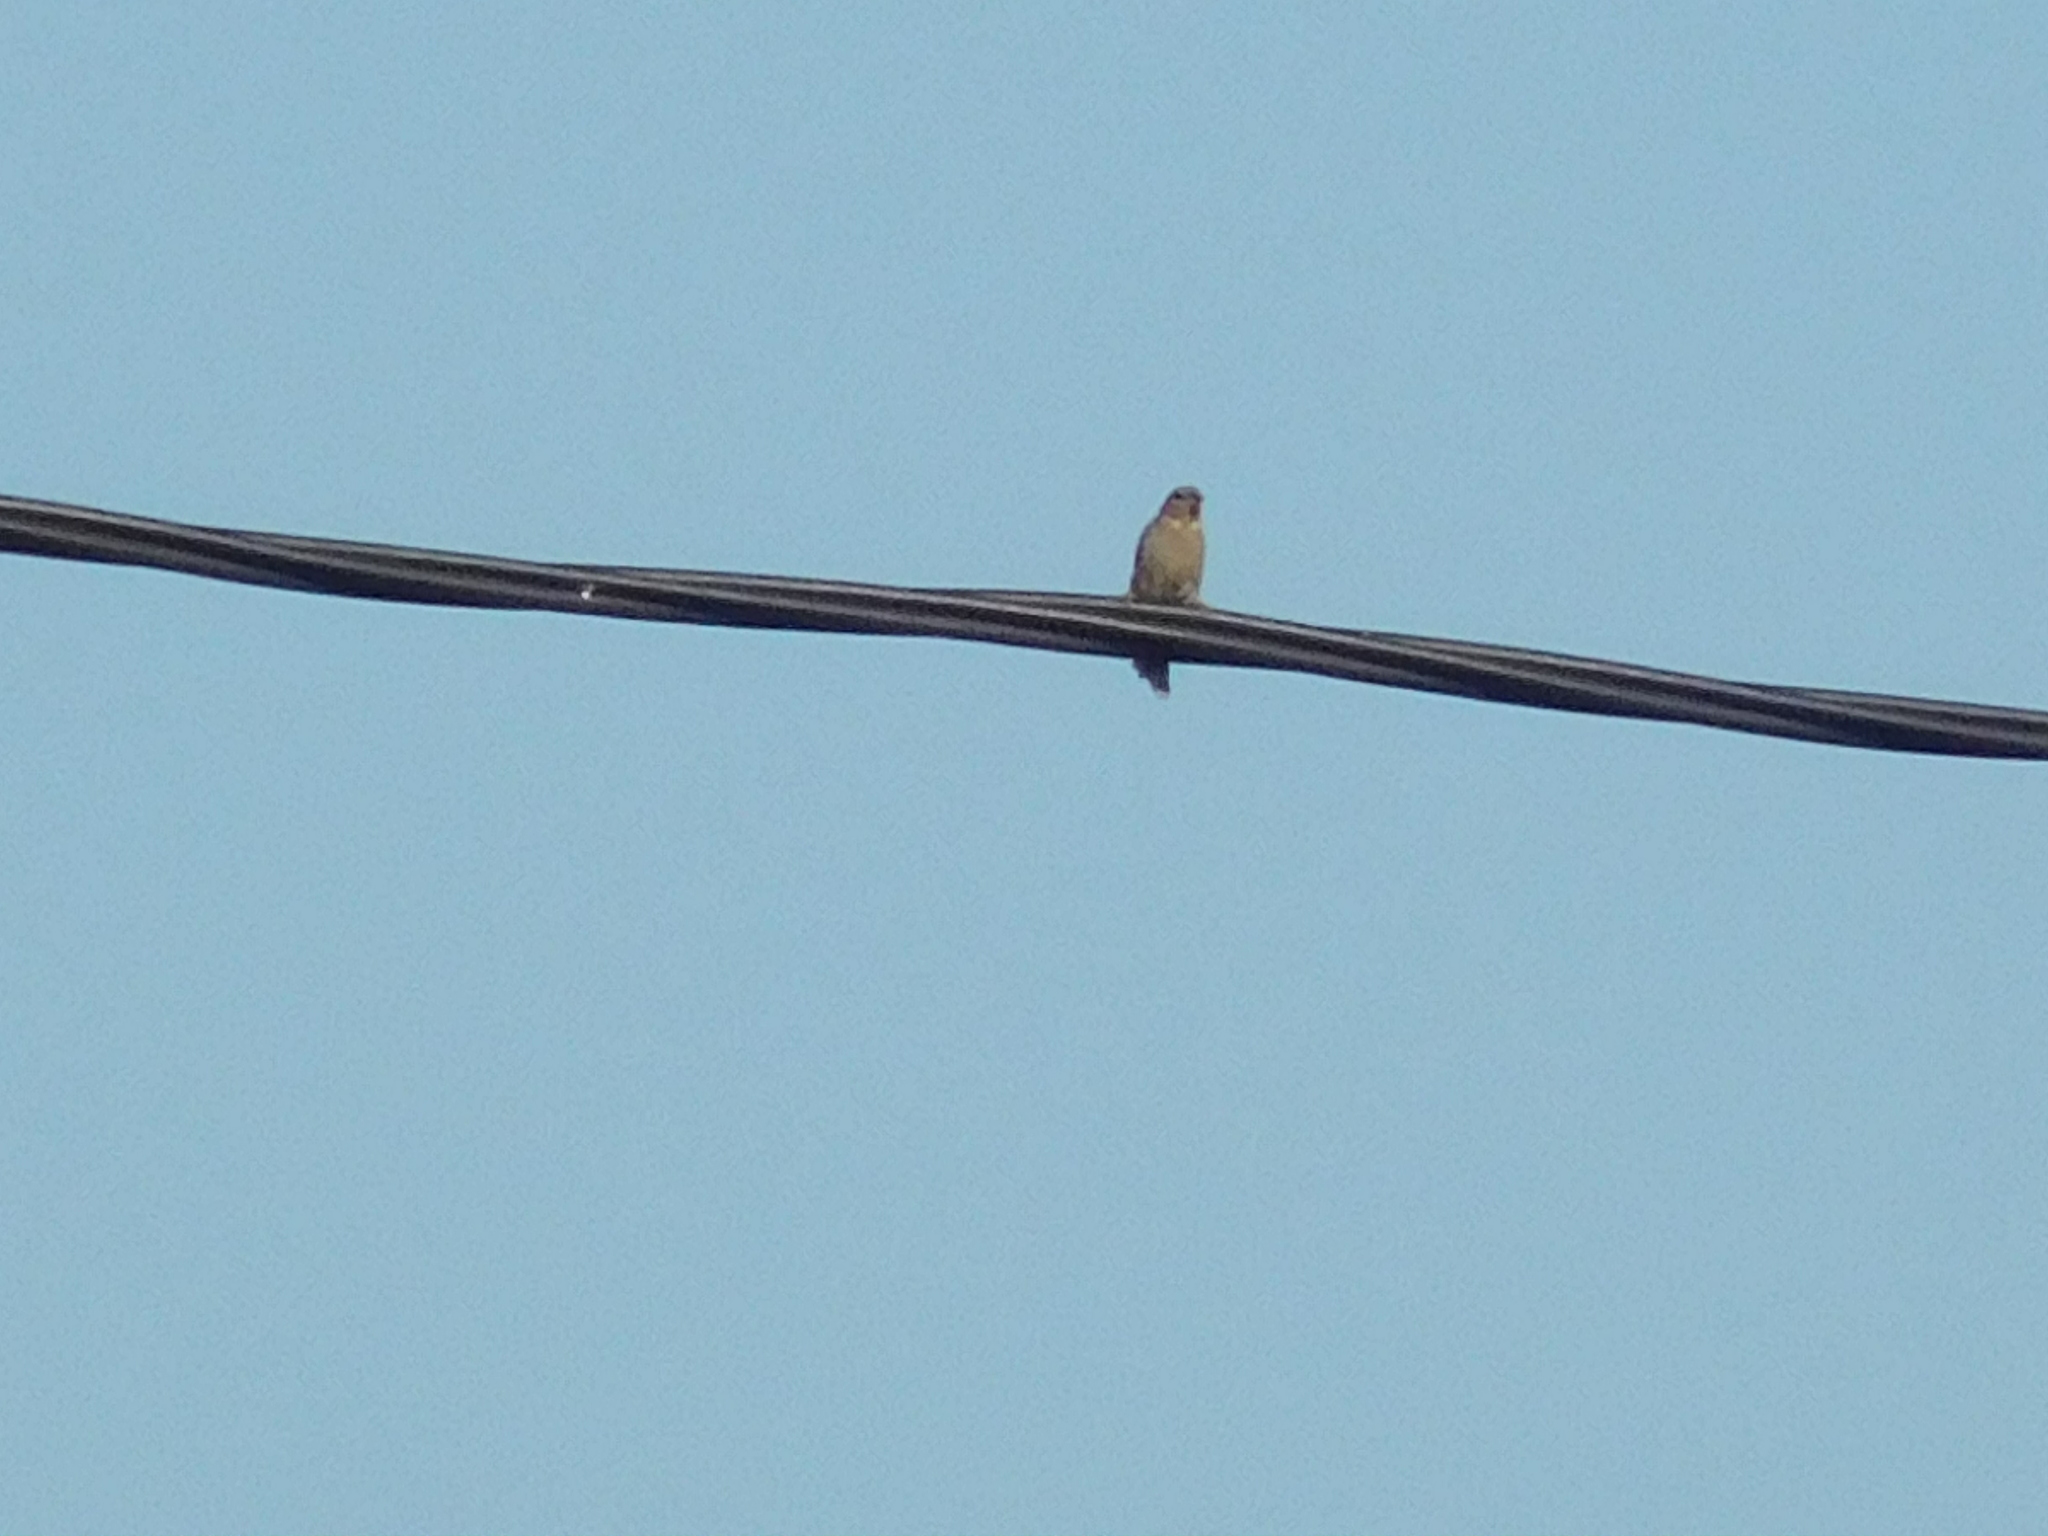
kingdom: Animalia
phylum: Chordata
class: Aves
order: Passeriformes
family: Passeridae
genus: Passer
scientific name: Passer domesticus
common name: House sparrow
